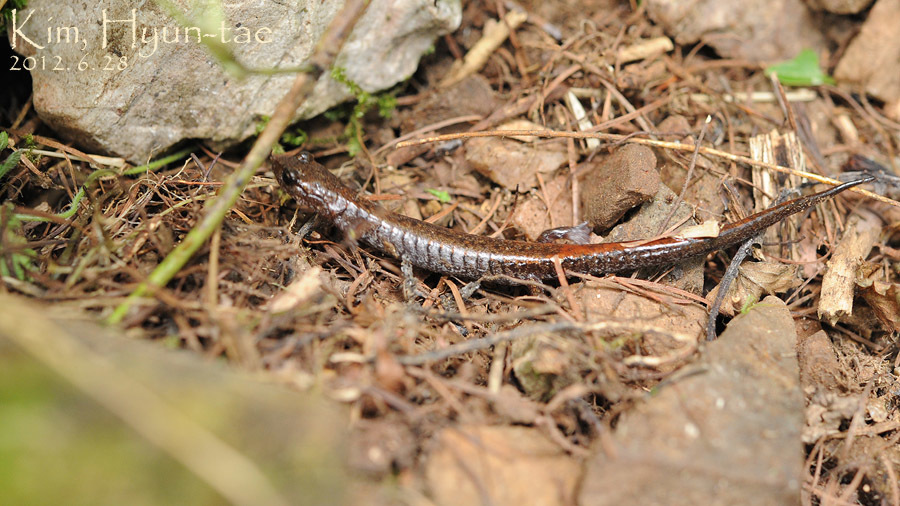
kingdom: Animalia
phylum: Chordata
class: Amphibia
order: Caudata
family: Plethodontidae
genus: Karsenia
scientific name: Karsenia koreana
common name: Korean crevice salamander
